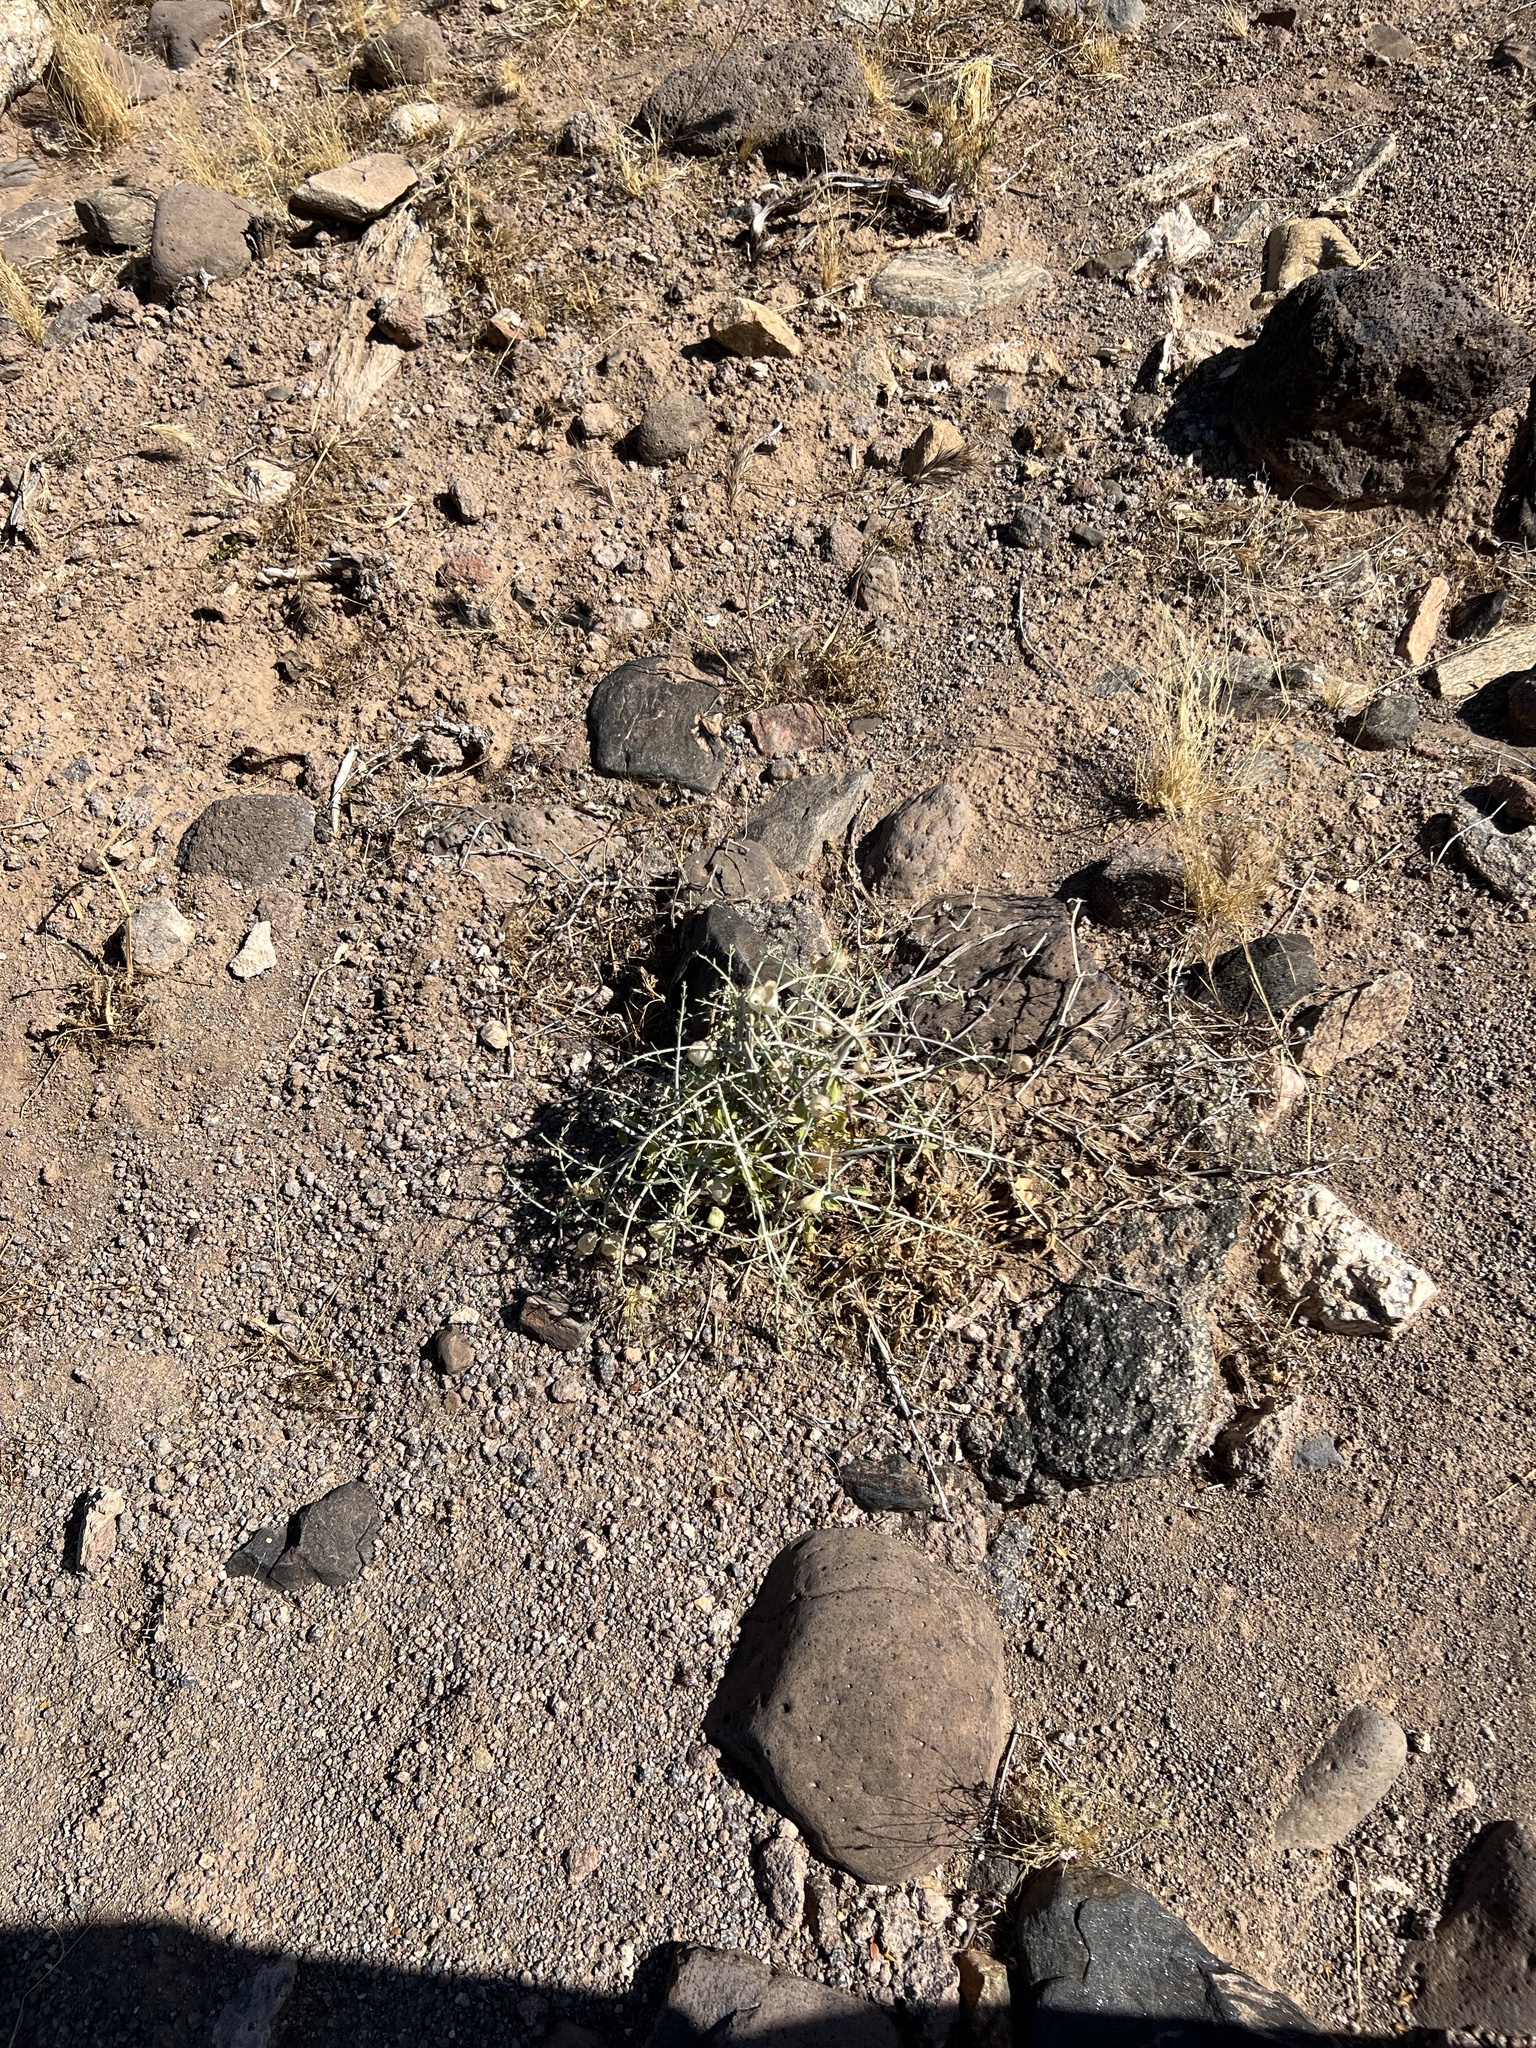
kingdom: Plantae
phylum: Tracheophyta
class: Magnoliopsida
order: Lamiales
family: Lamiaceae
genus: Scutellaria
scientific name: Scutellaria mexicana
